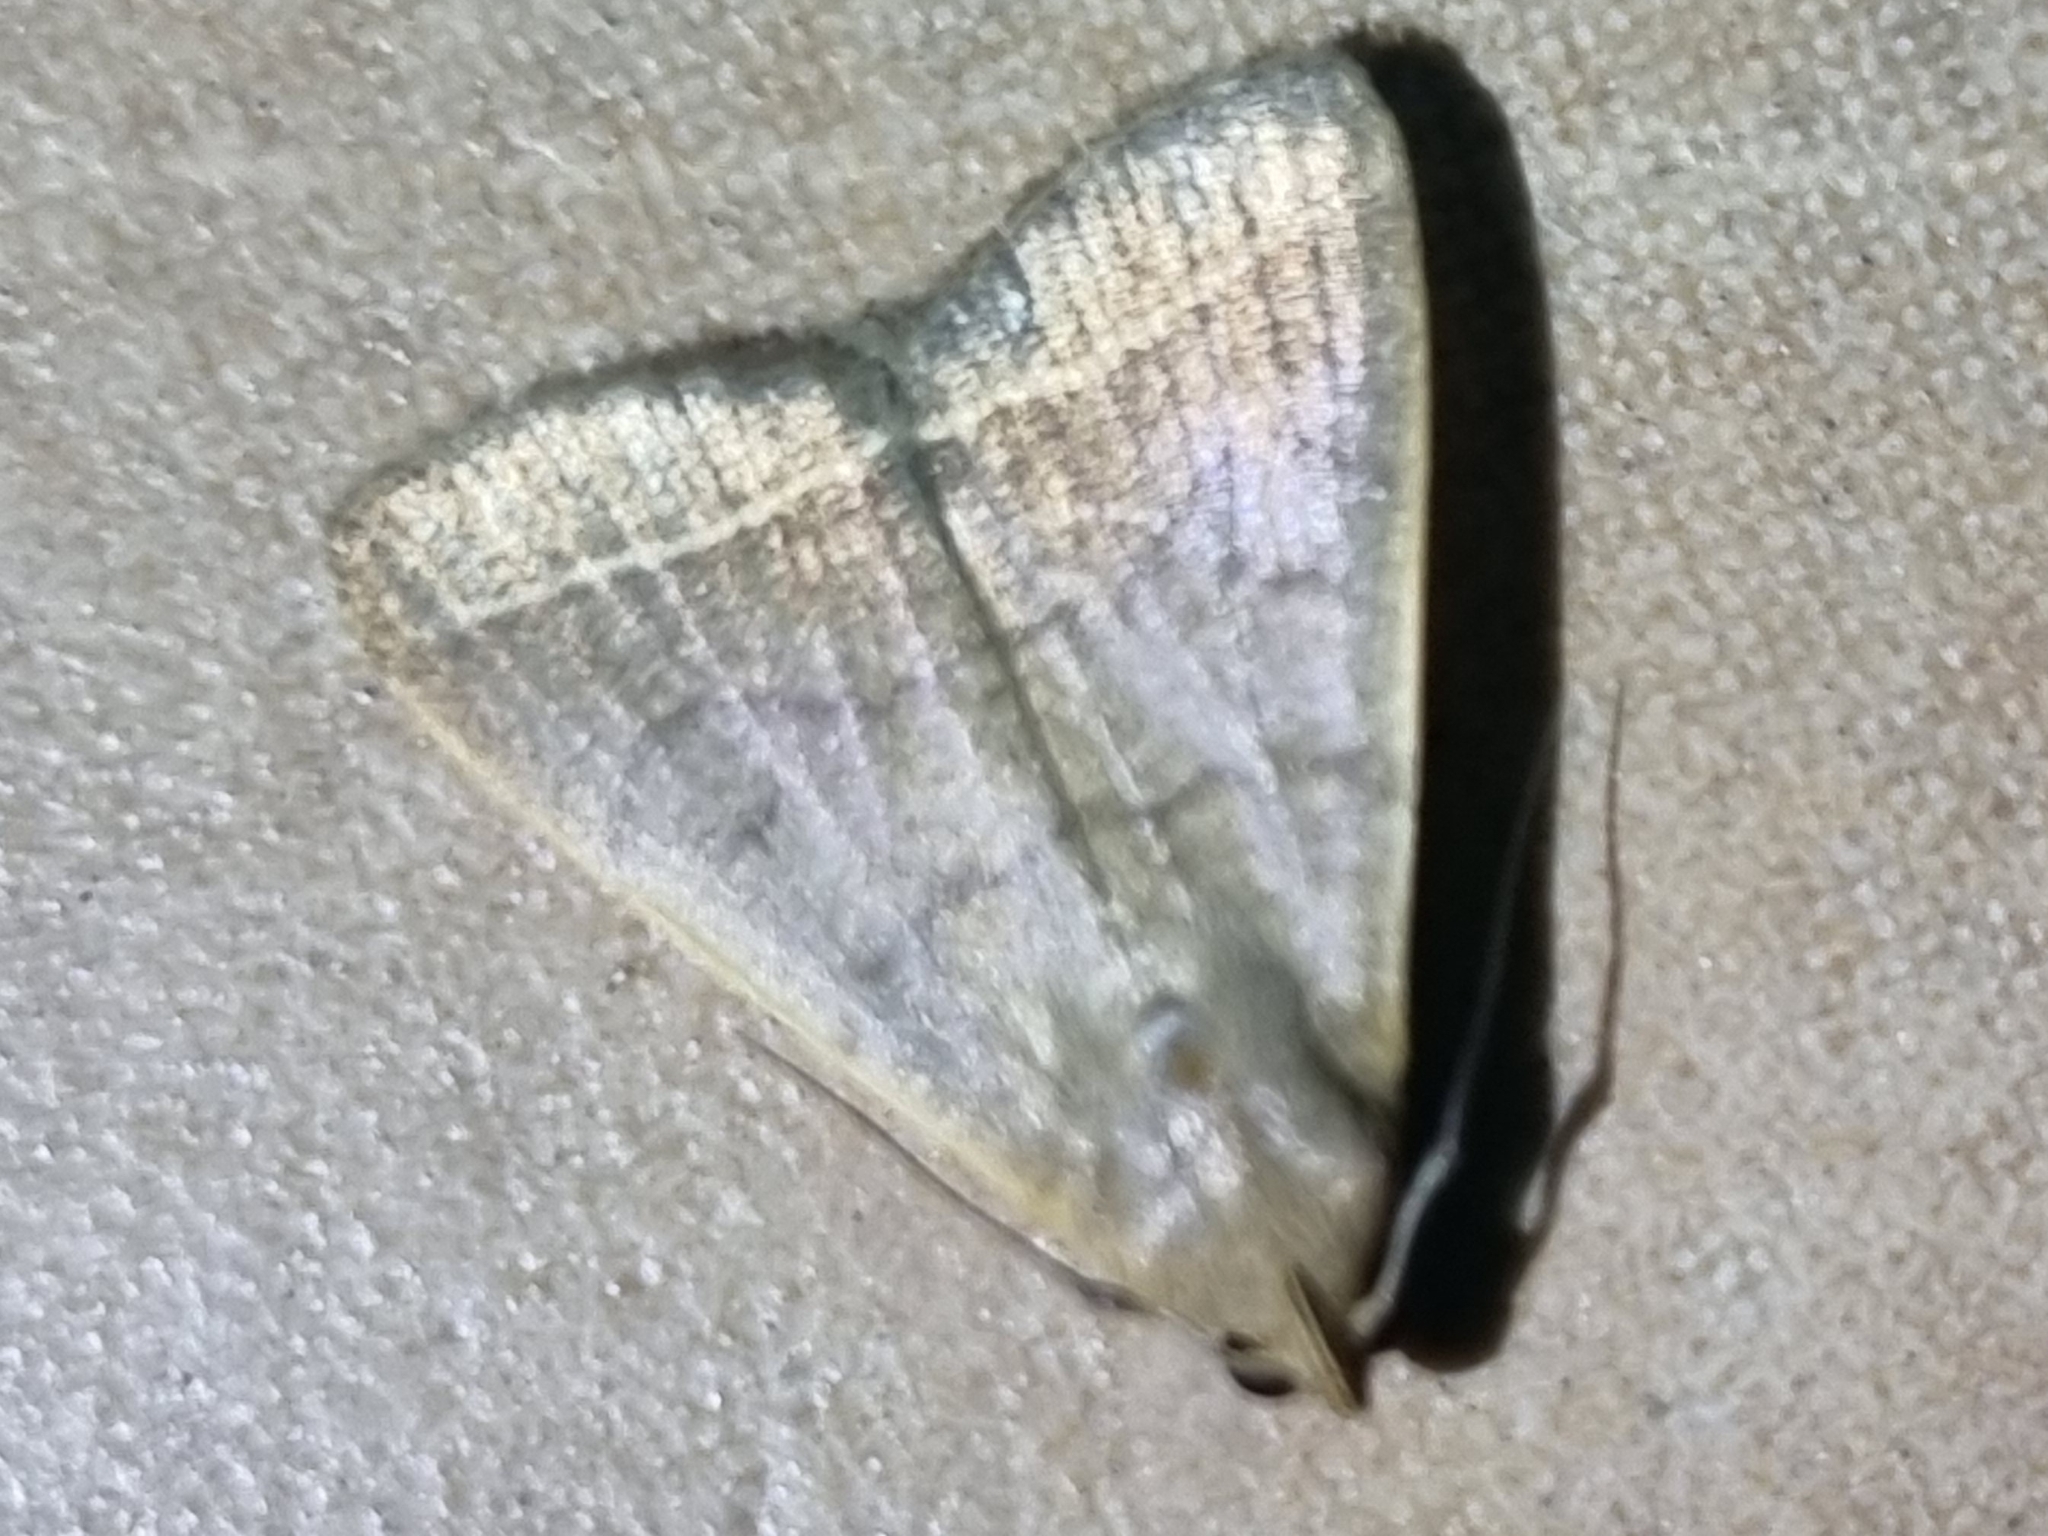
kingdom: Animalia
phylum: Arthropoda
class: Insecta
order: Lepidoptera
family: Erebidae
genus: Simplicia
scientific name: Simplicia cornicalis
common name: Tiki hut litter moth
